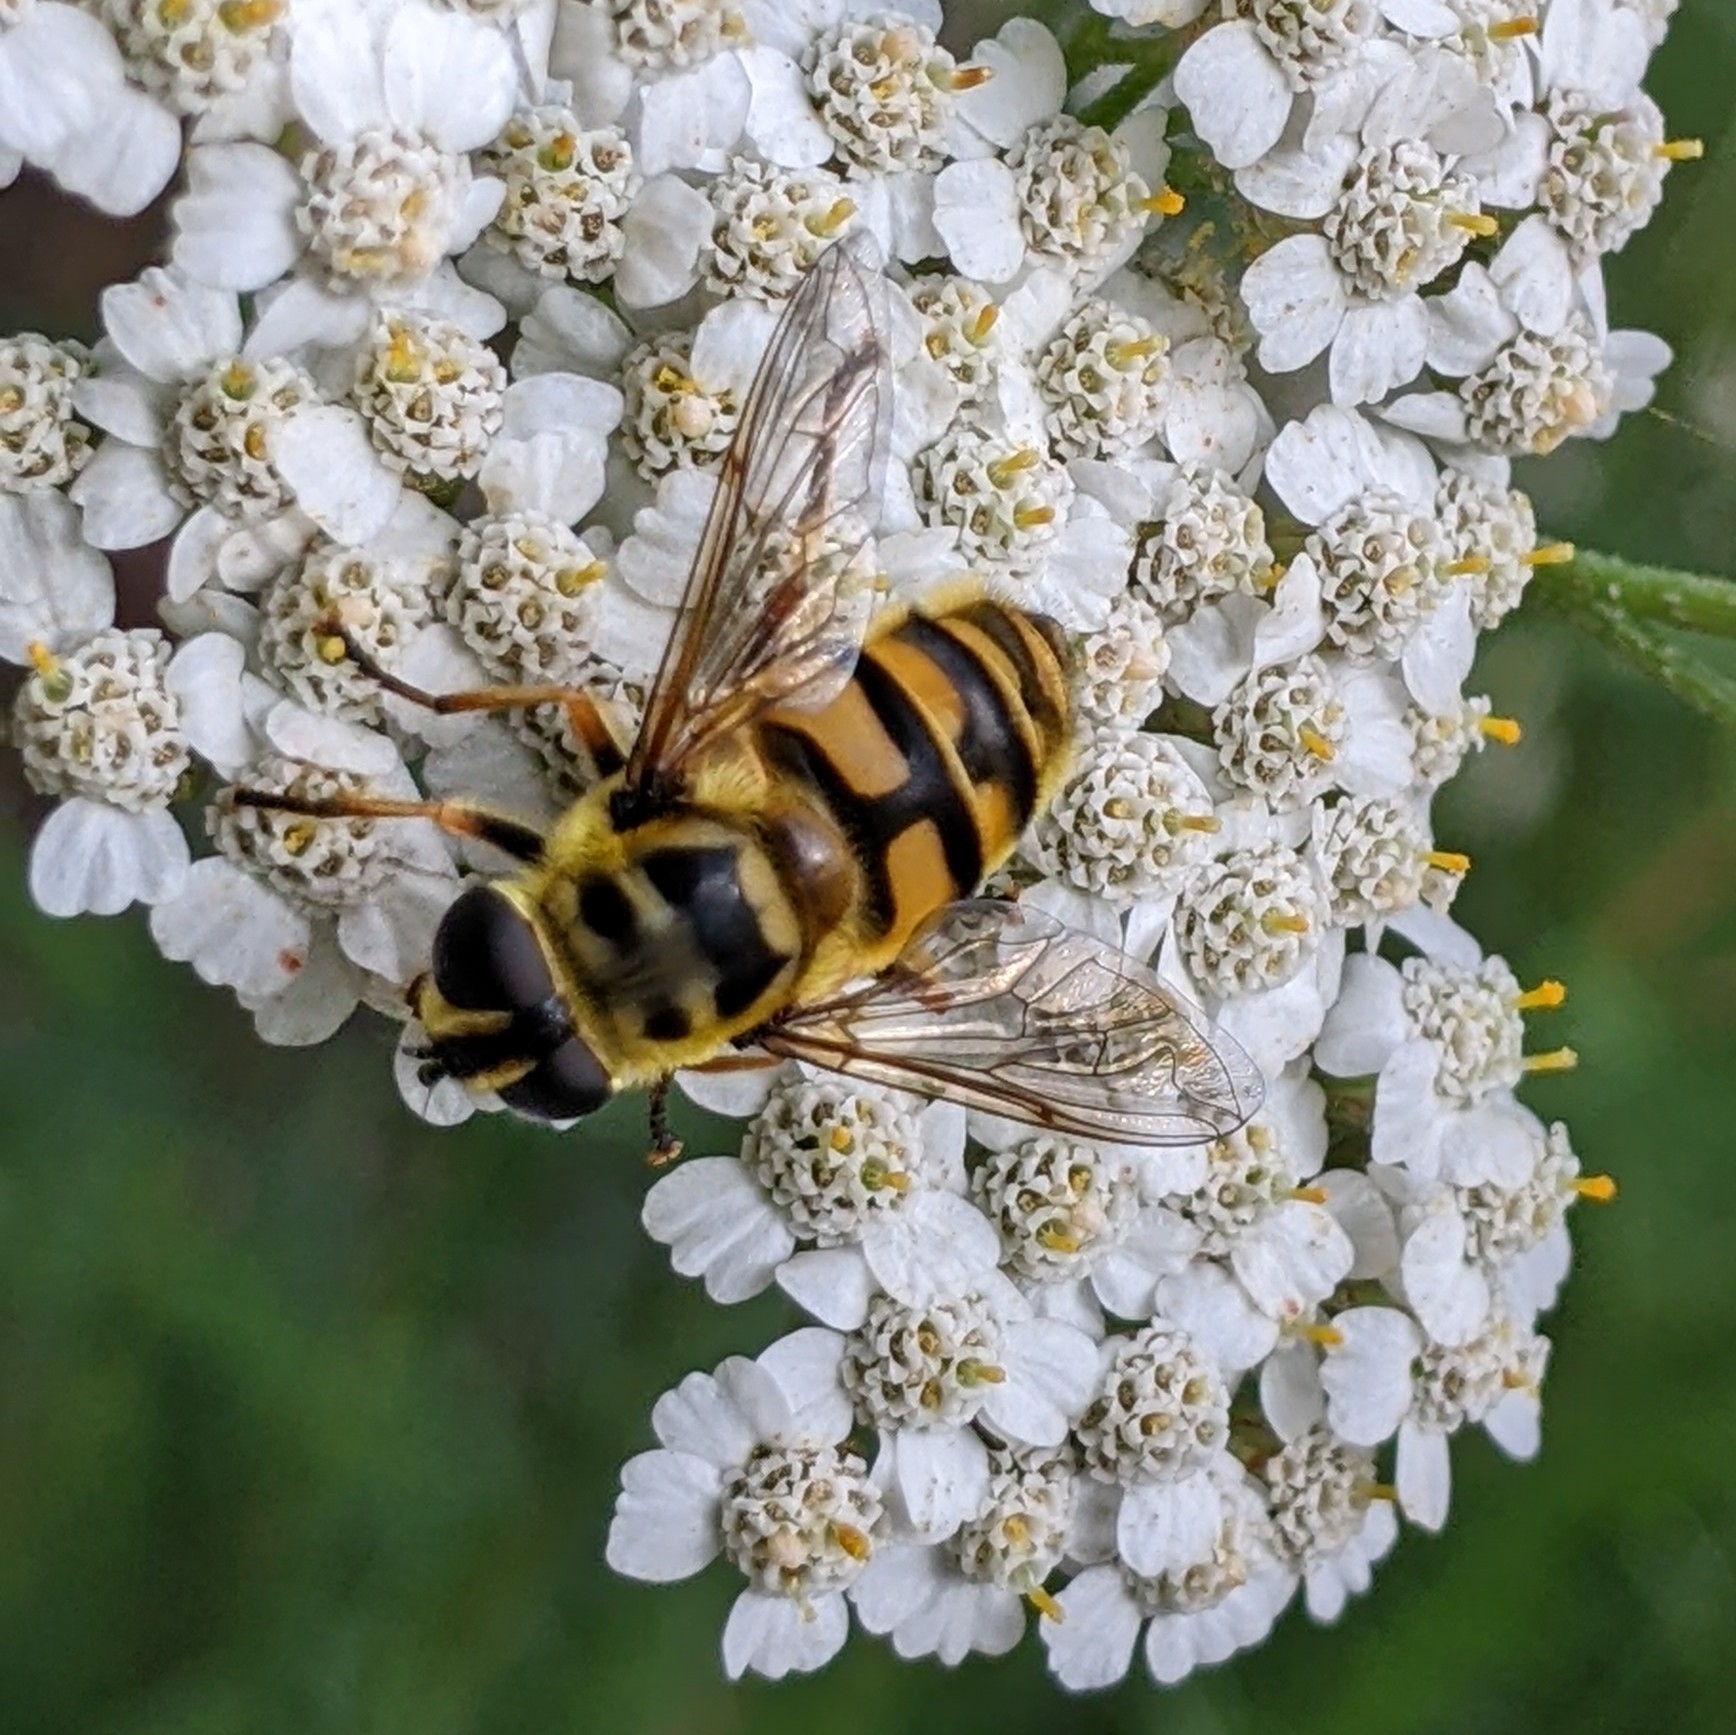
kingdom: Animalia
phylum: Arthropoda
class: Insecta
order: Diptera
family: Syrphidae
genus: Myathropa
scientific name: Myathropa florea
